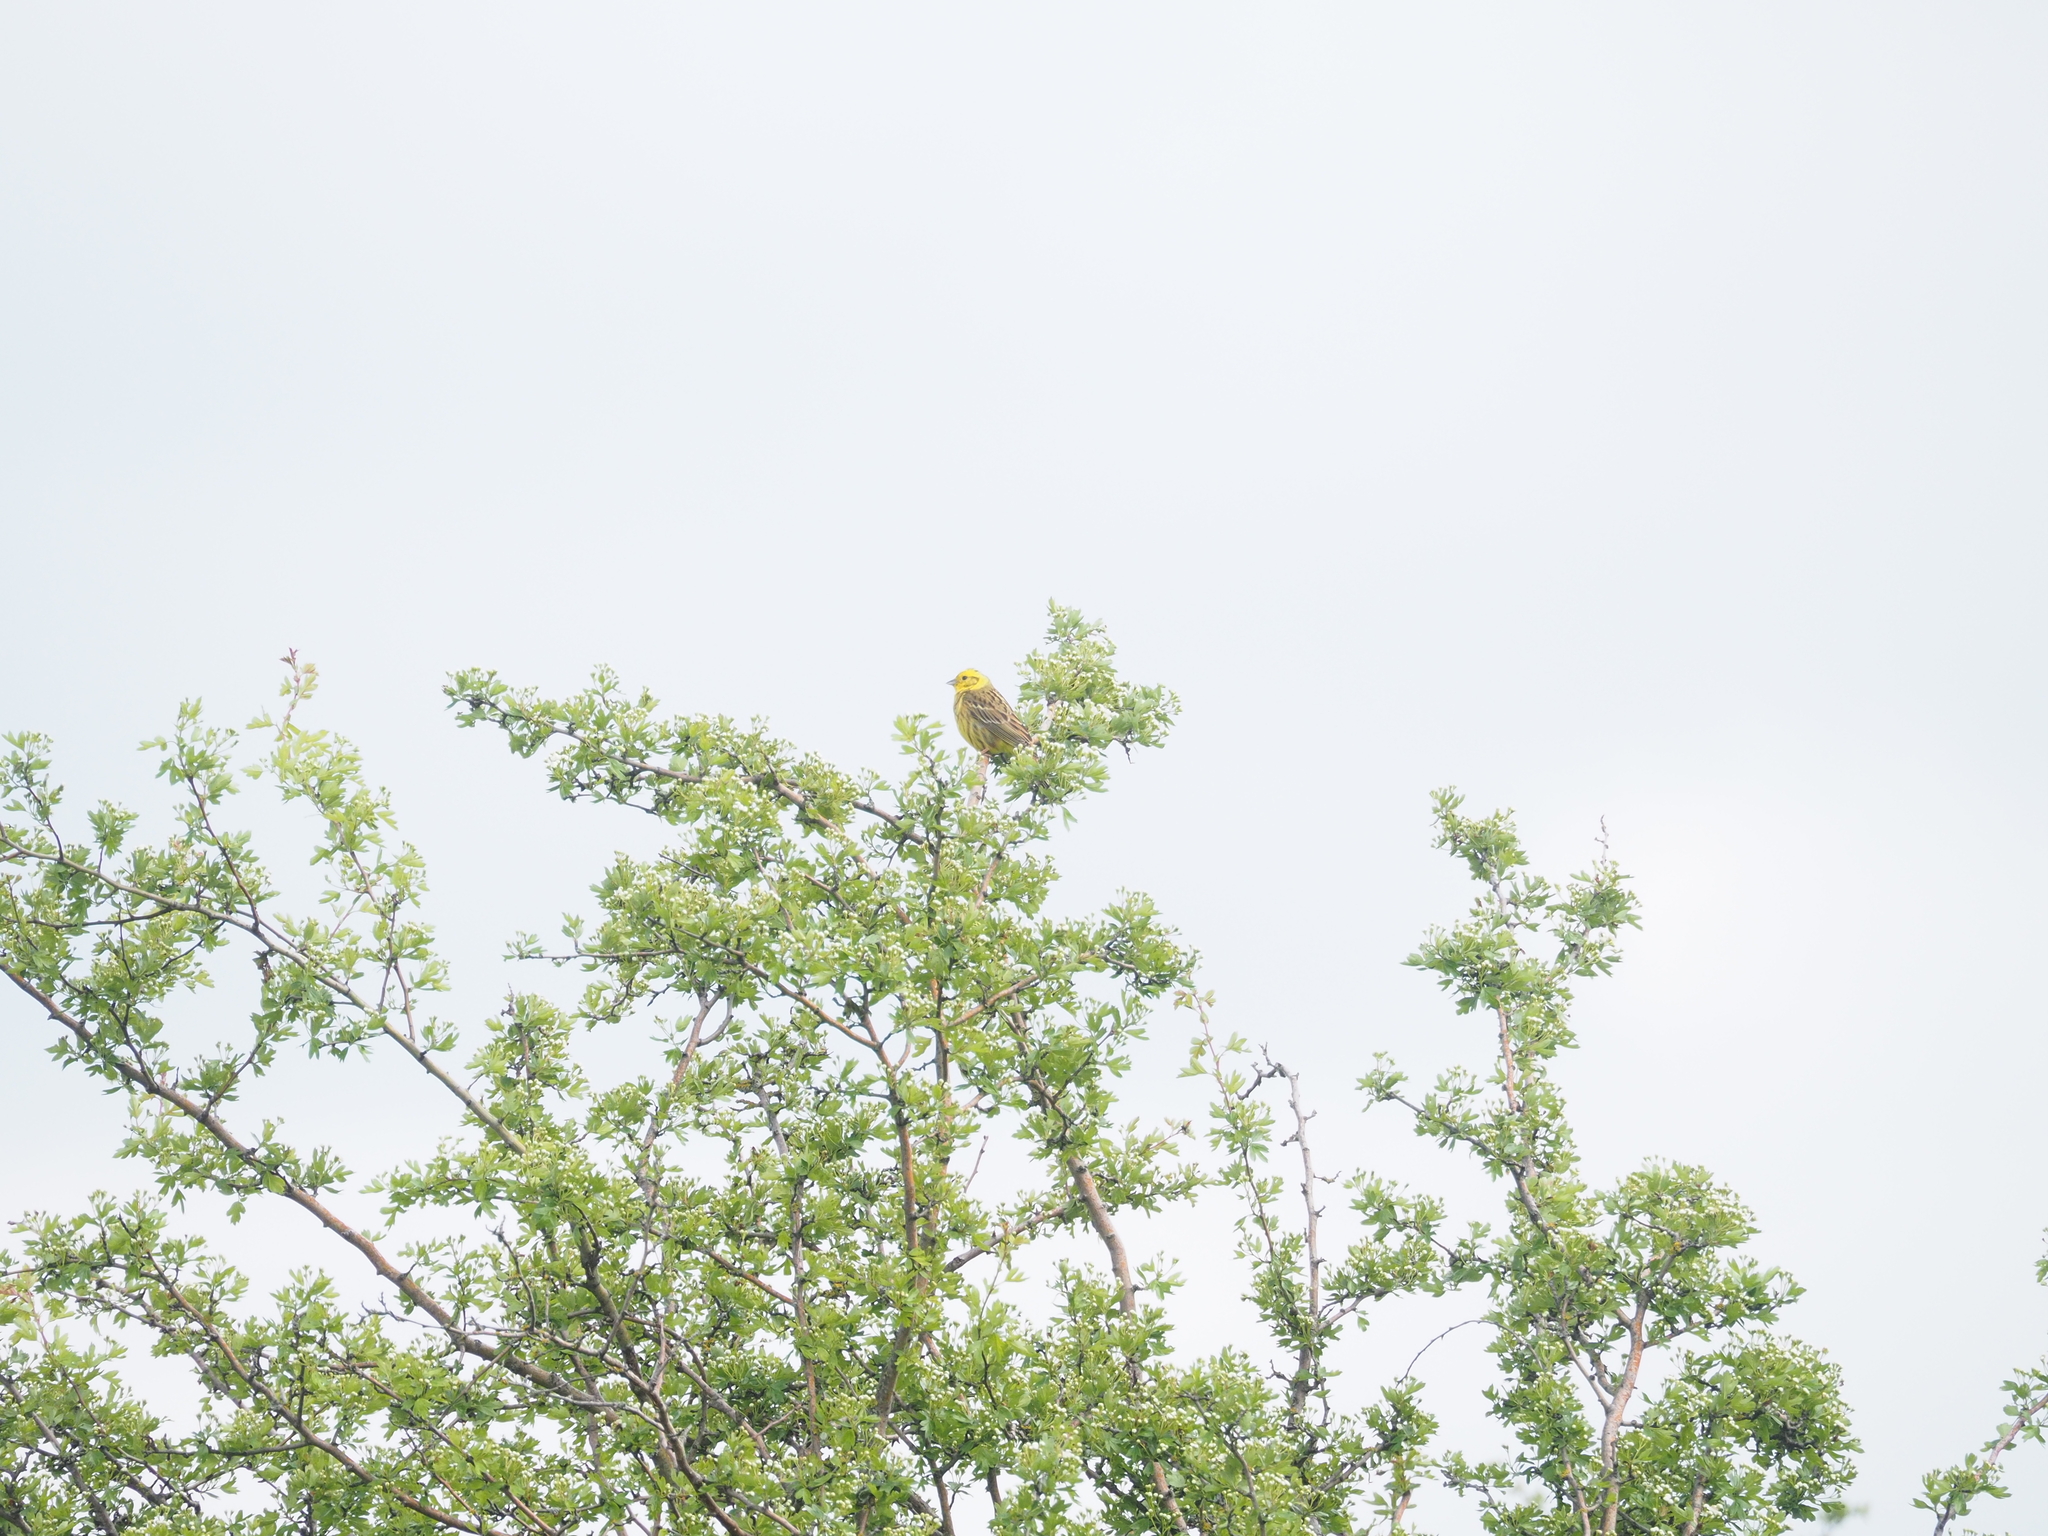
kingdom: Animalia
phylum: Chordata
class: Aves
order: Passeriformes
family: Emberizidae
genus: Emberiza
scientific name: Emberiza citrinella
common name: Yellowhammer
